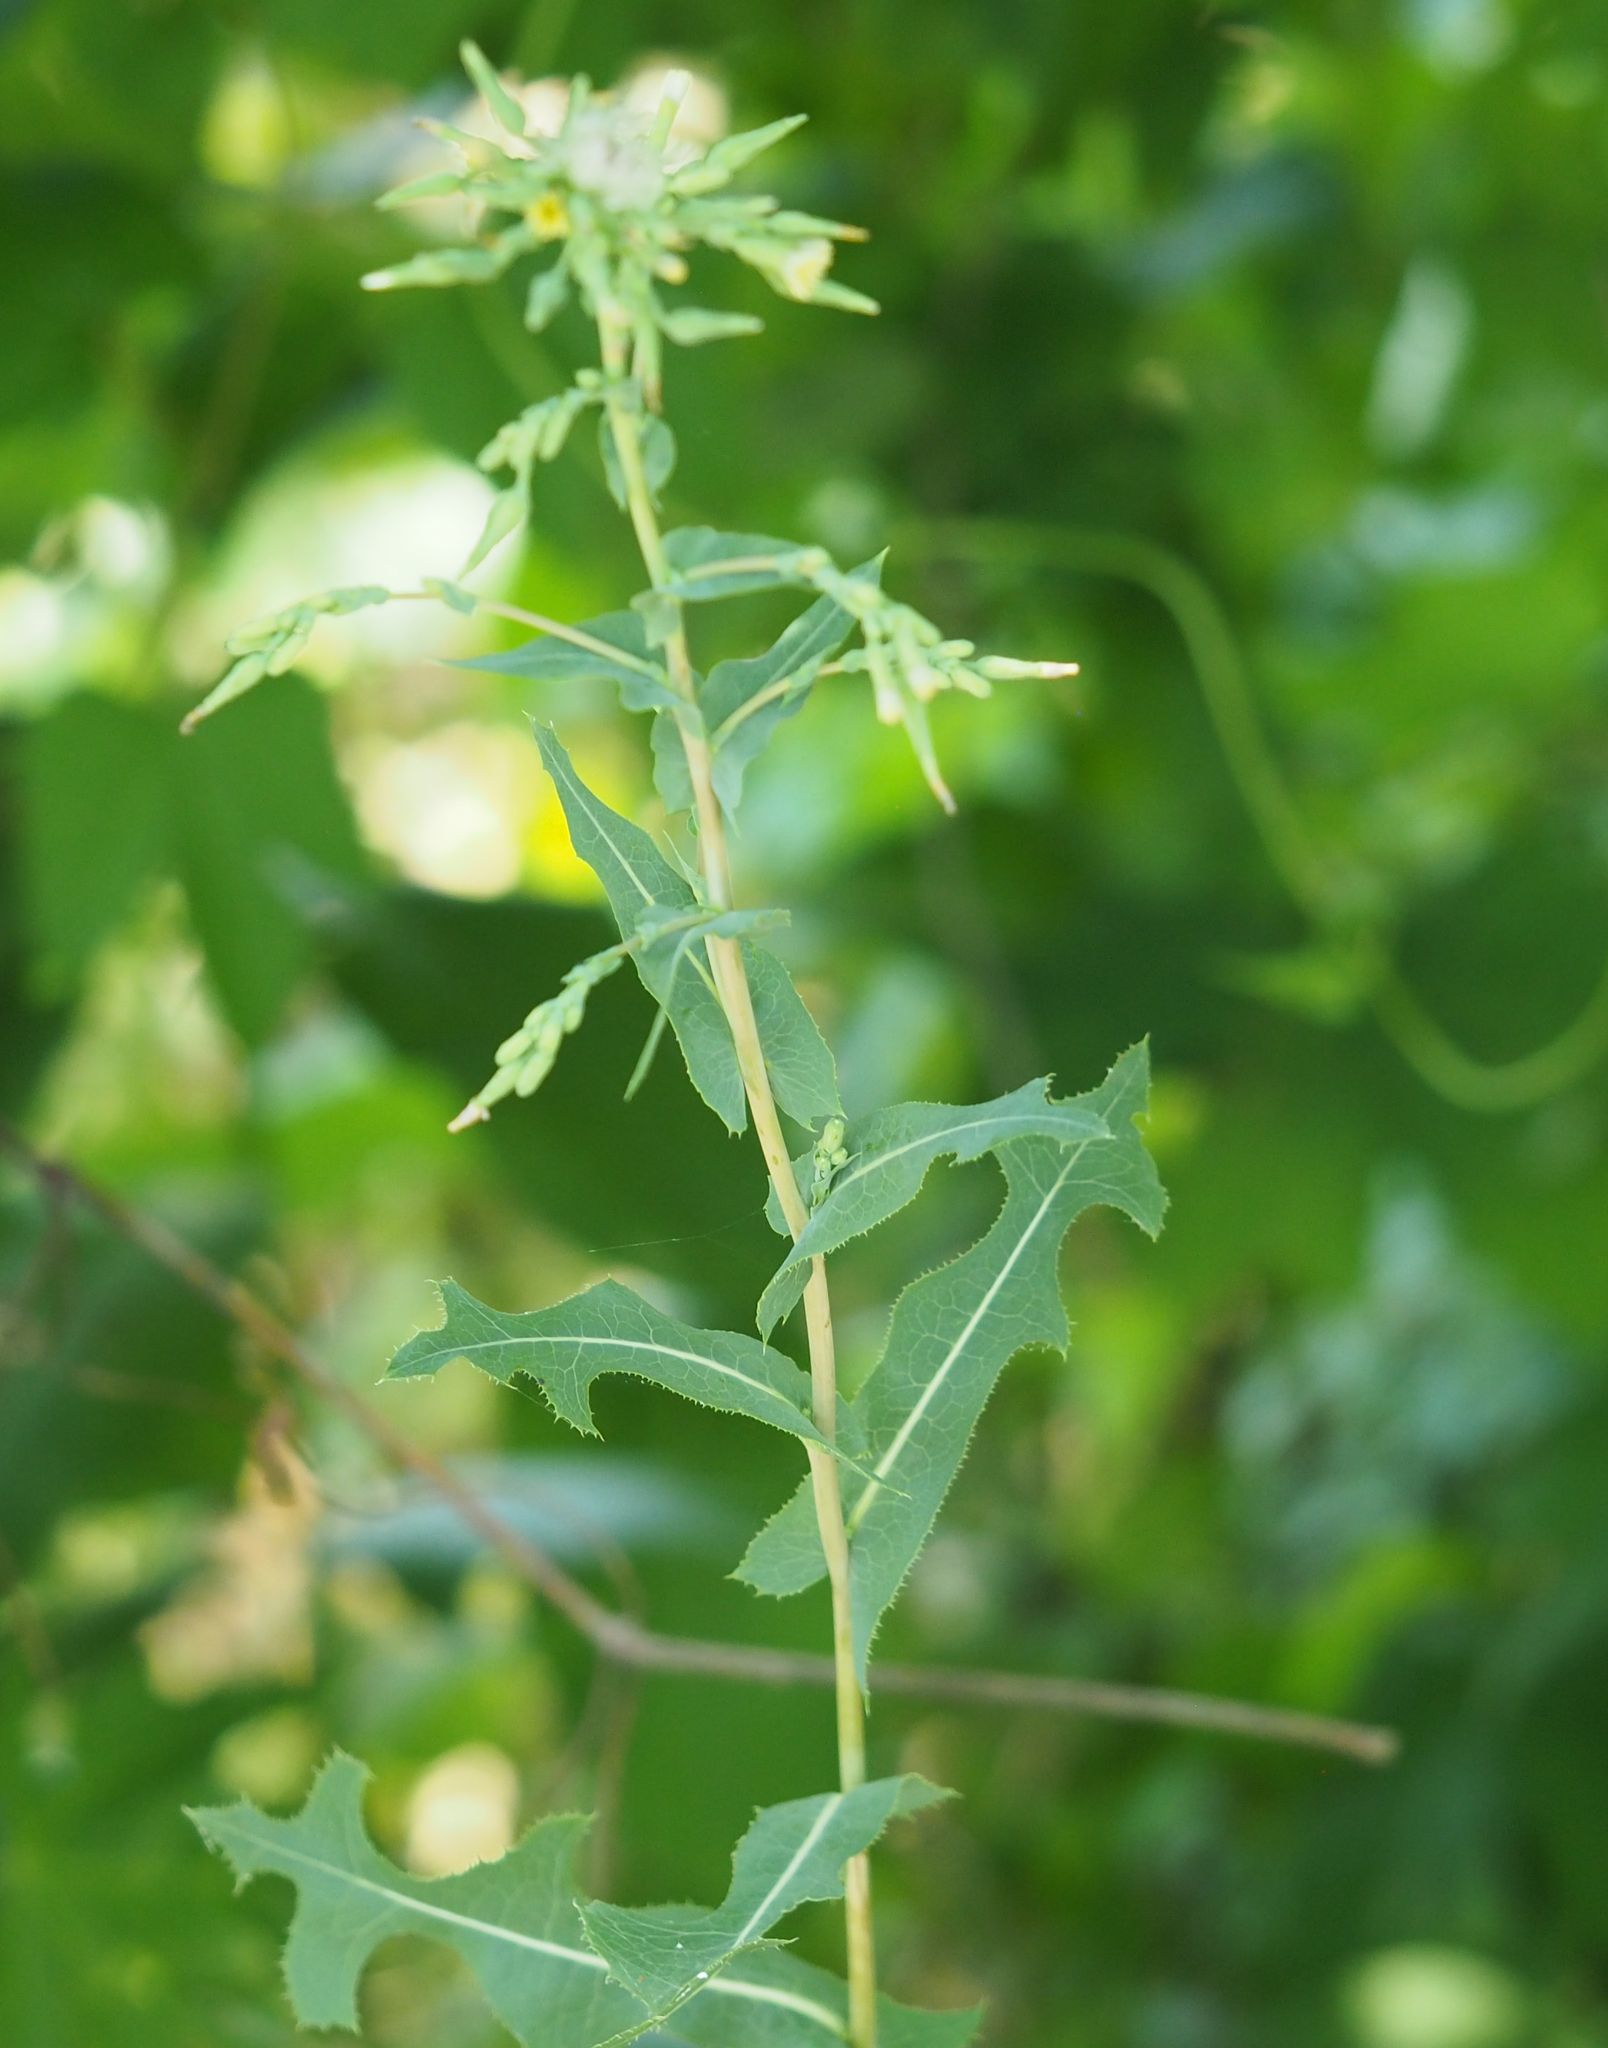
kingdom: Plantae
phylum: Tracheophyta
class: Magnoliopsida
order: Asterales
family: Asteraceae
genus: Lactuca
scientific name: Lactuca serriola
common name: Prickly lettuce
